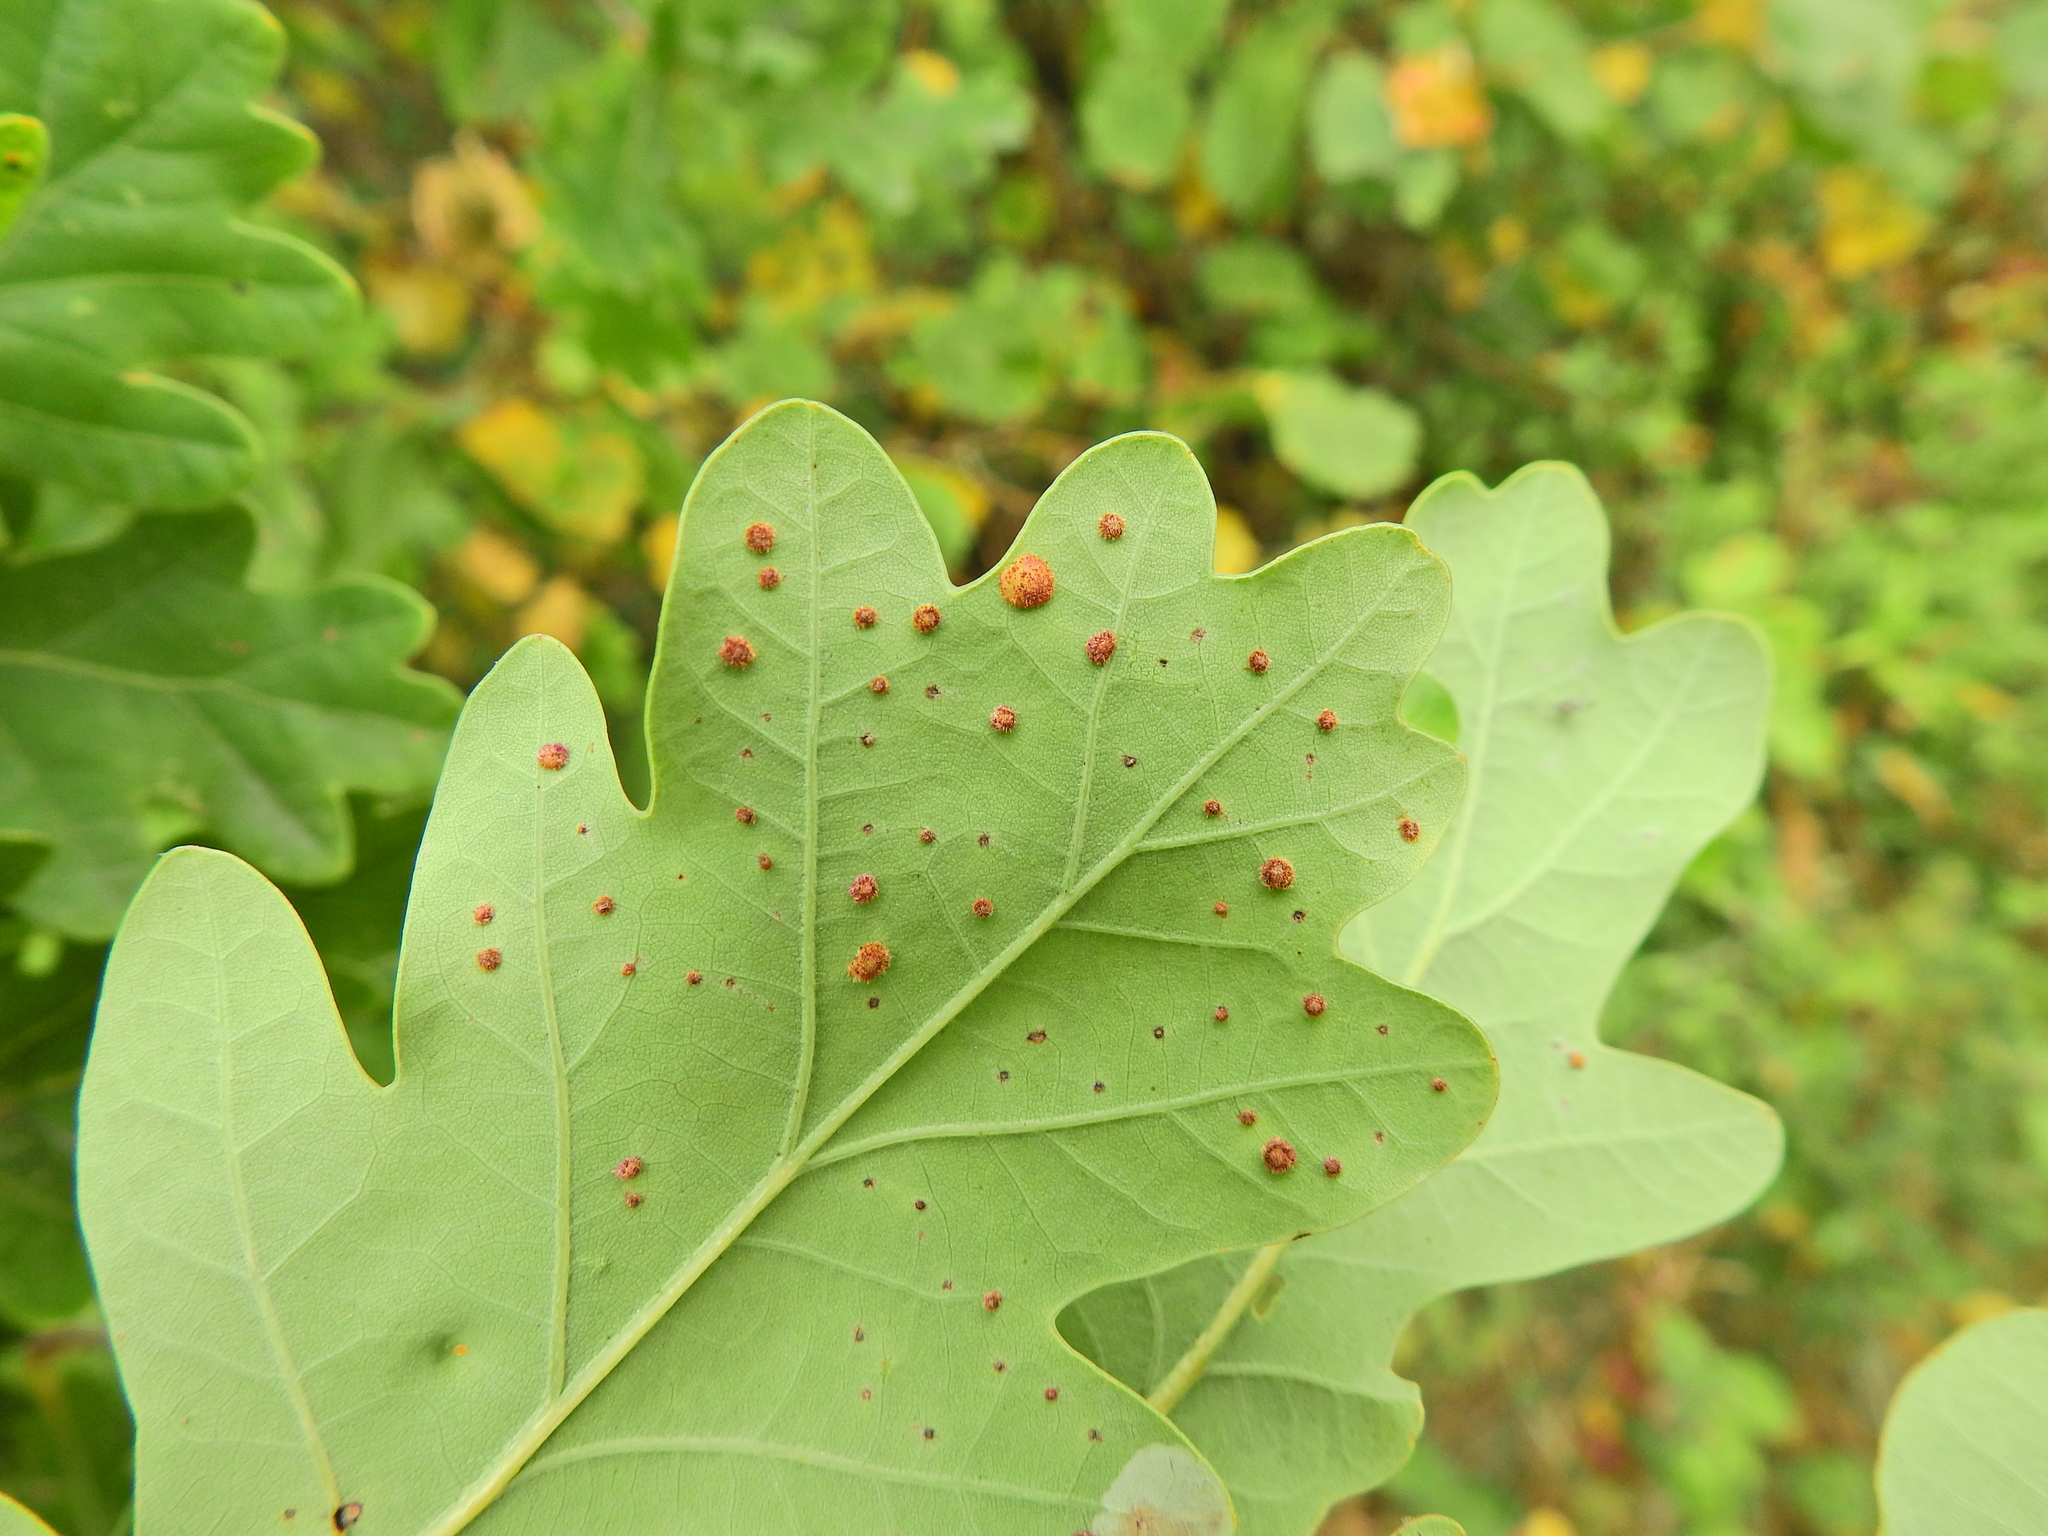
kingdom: Animalia
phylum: Arthropoda
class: Insecta
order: Hymenoptera
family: Cynipidae
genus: Neuroterus
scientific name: Neuroterus quercusbaccarum
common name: Common spangle gall
